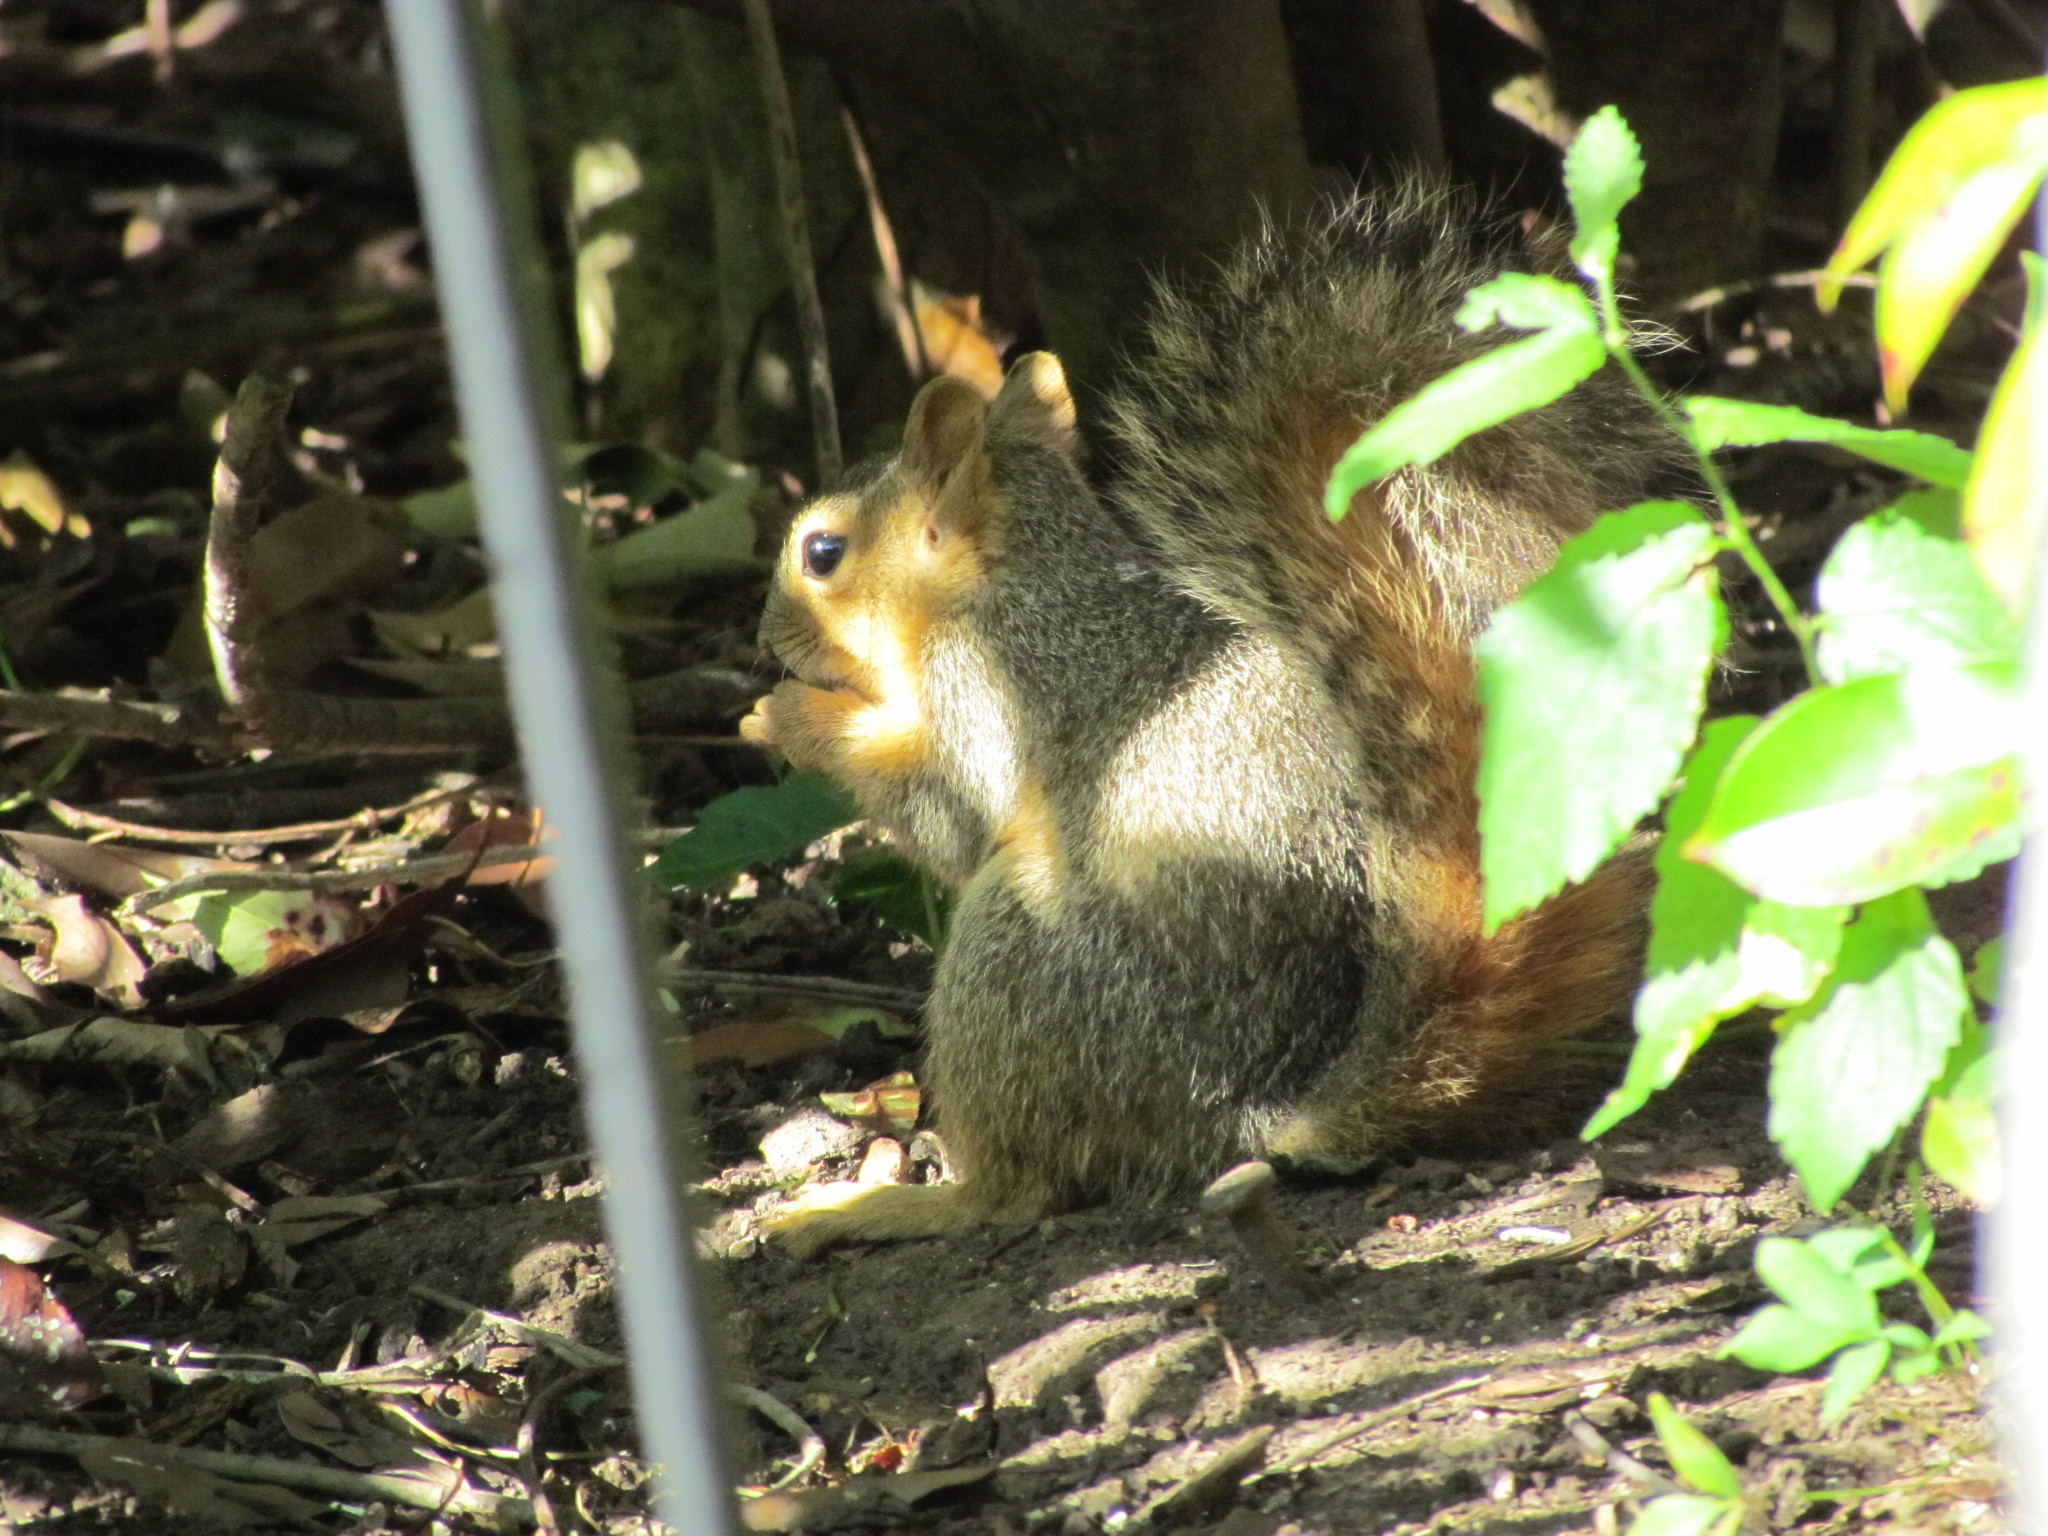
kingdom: Animalia
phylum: Chordata
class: Mammalia
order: Rodentia
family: Sciuridae
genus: Sciurus
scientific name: Sciurus niger
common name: Fox squirrel
